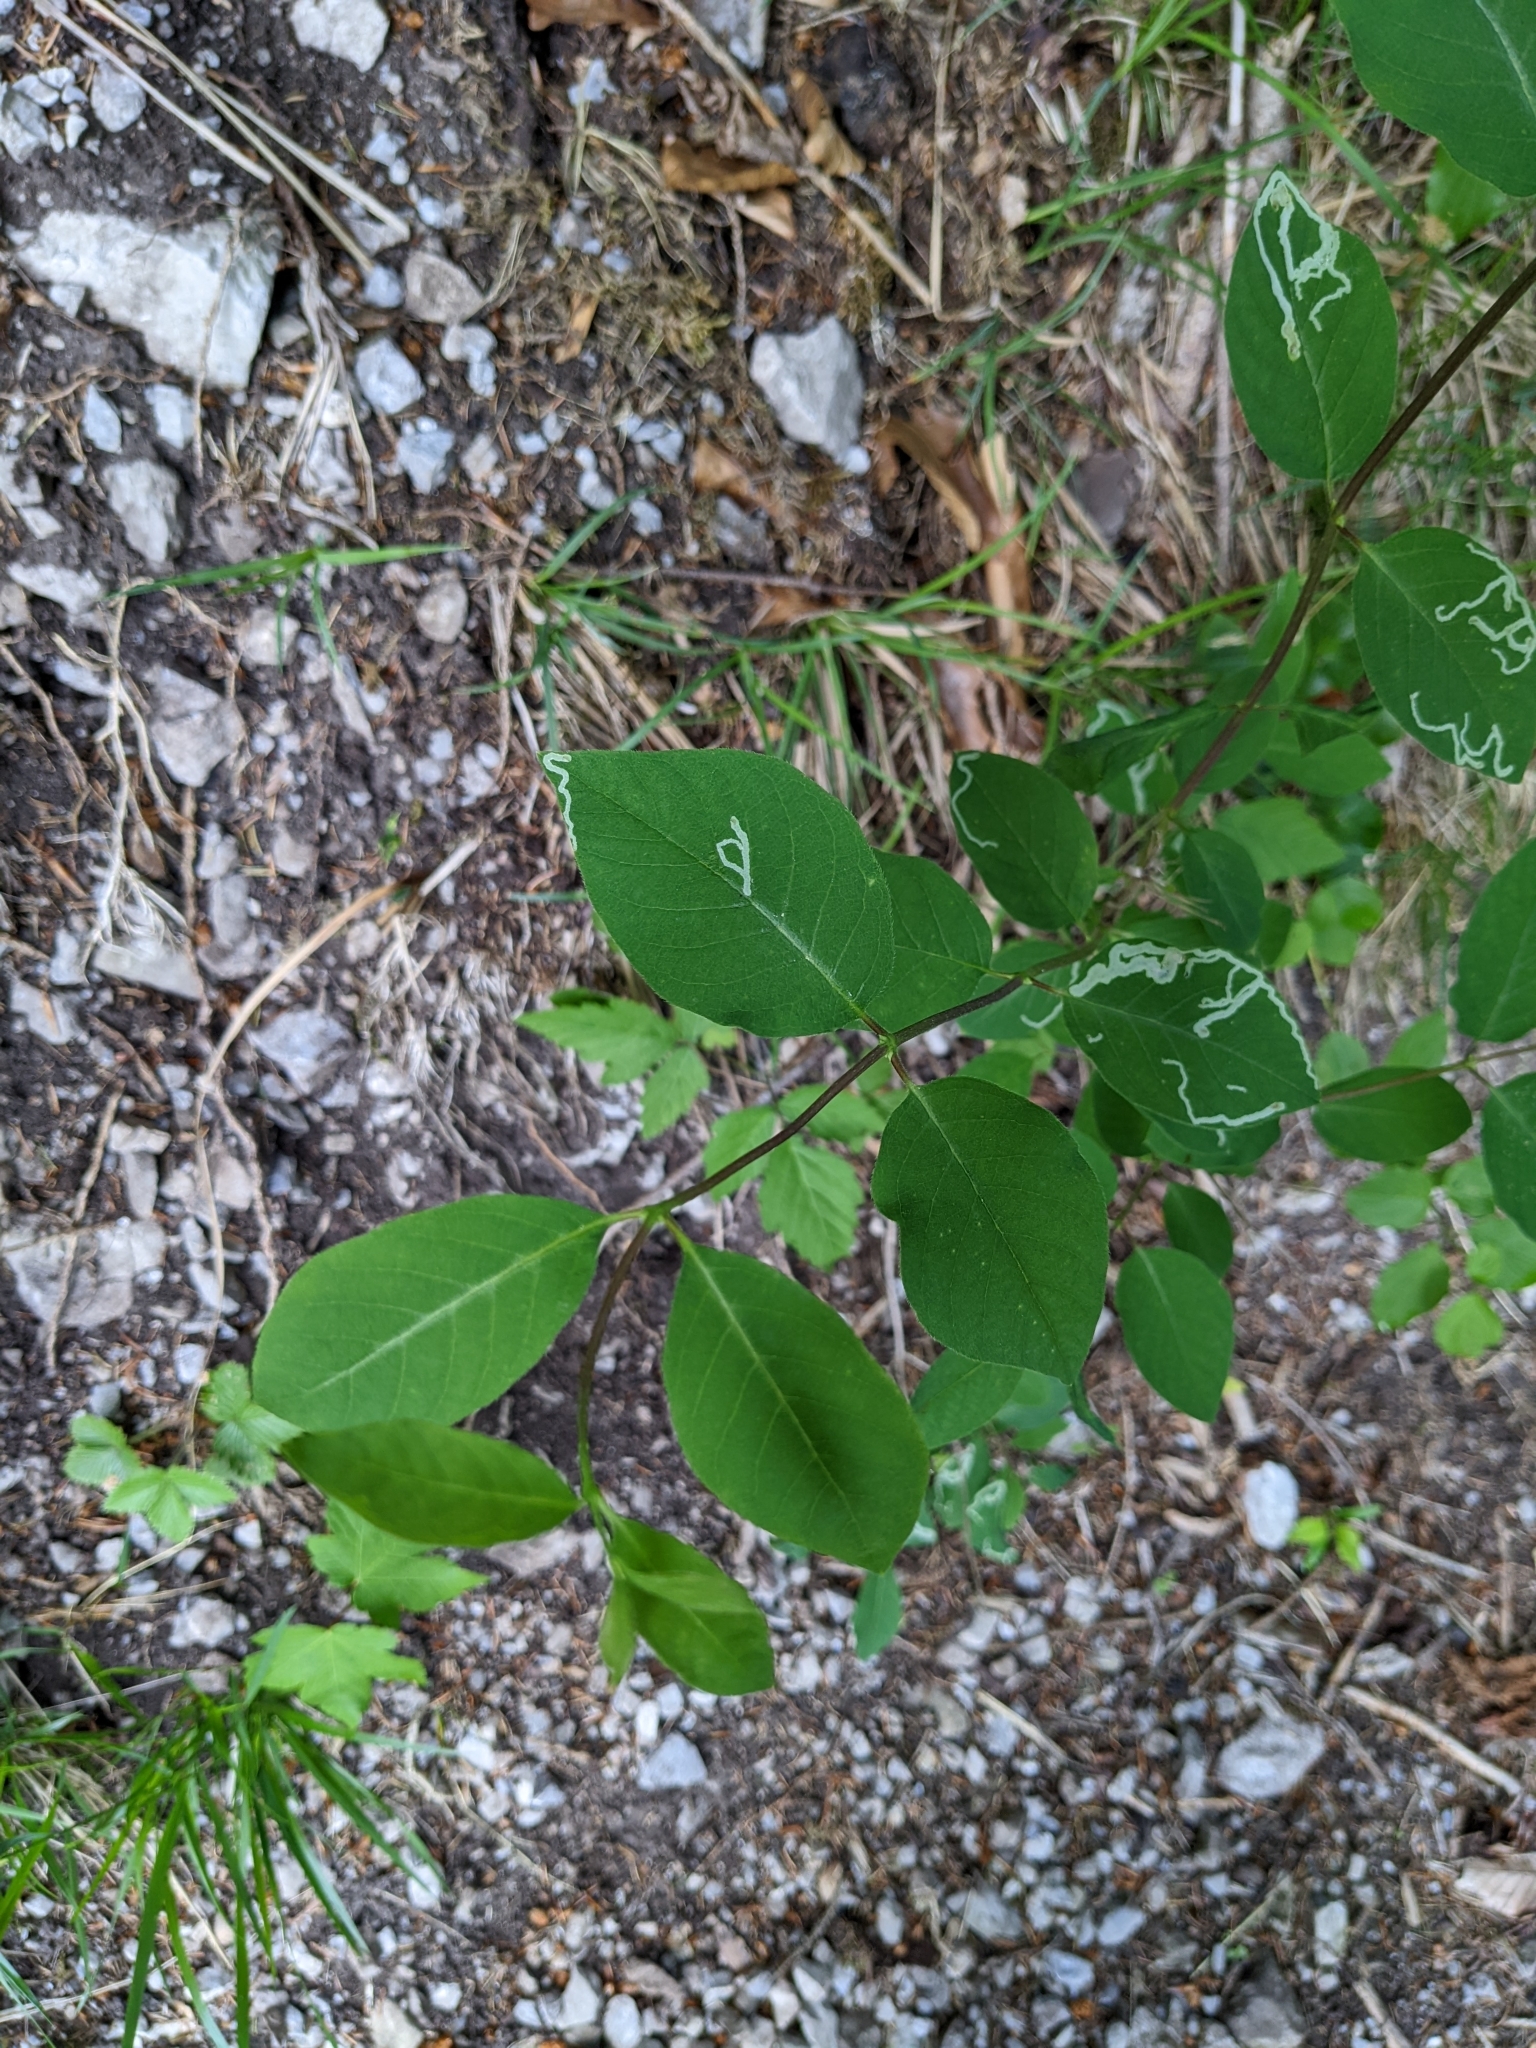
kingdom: Plantae
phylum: Tracheophyta
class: Magnoliopsida
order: Dipsacales
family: Caprifoliaceae
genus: Lonicera
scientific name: Lonicera xylosteum
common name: Fly honeysuckle
